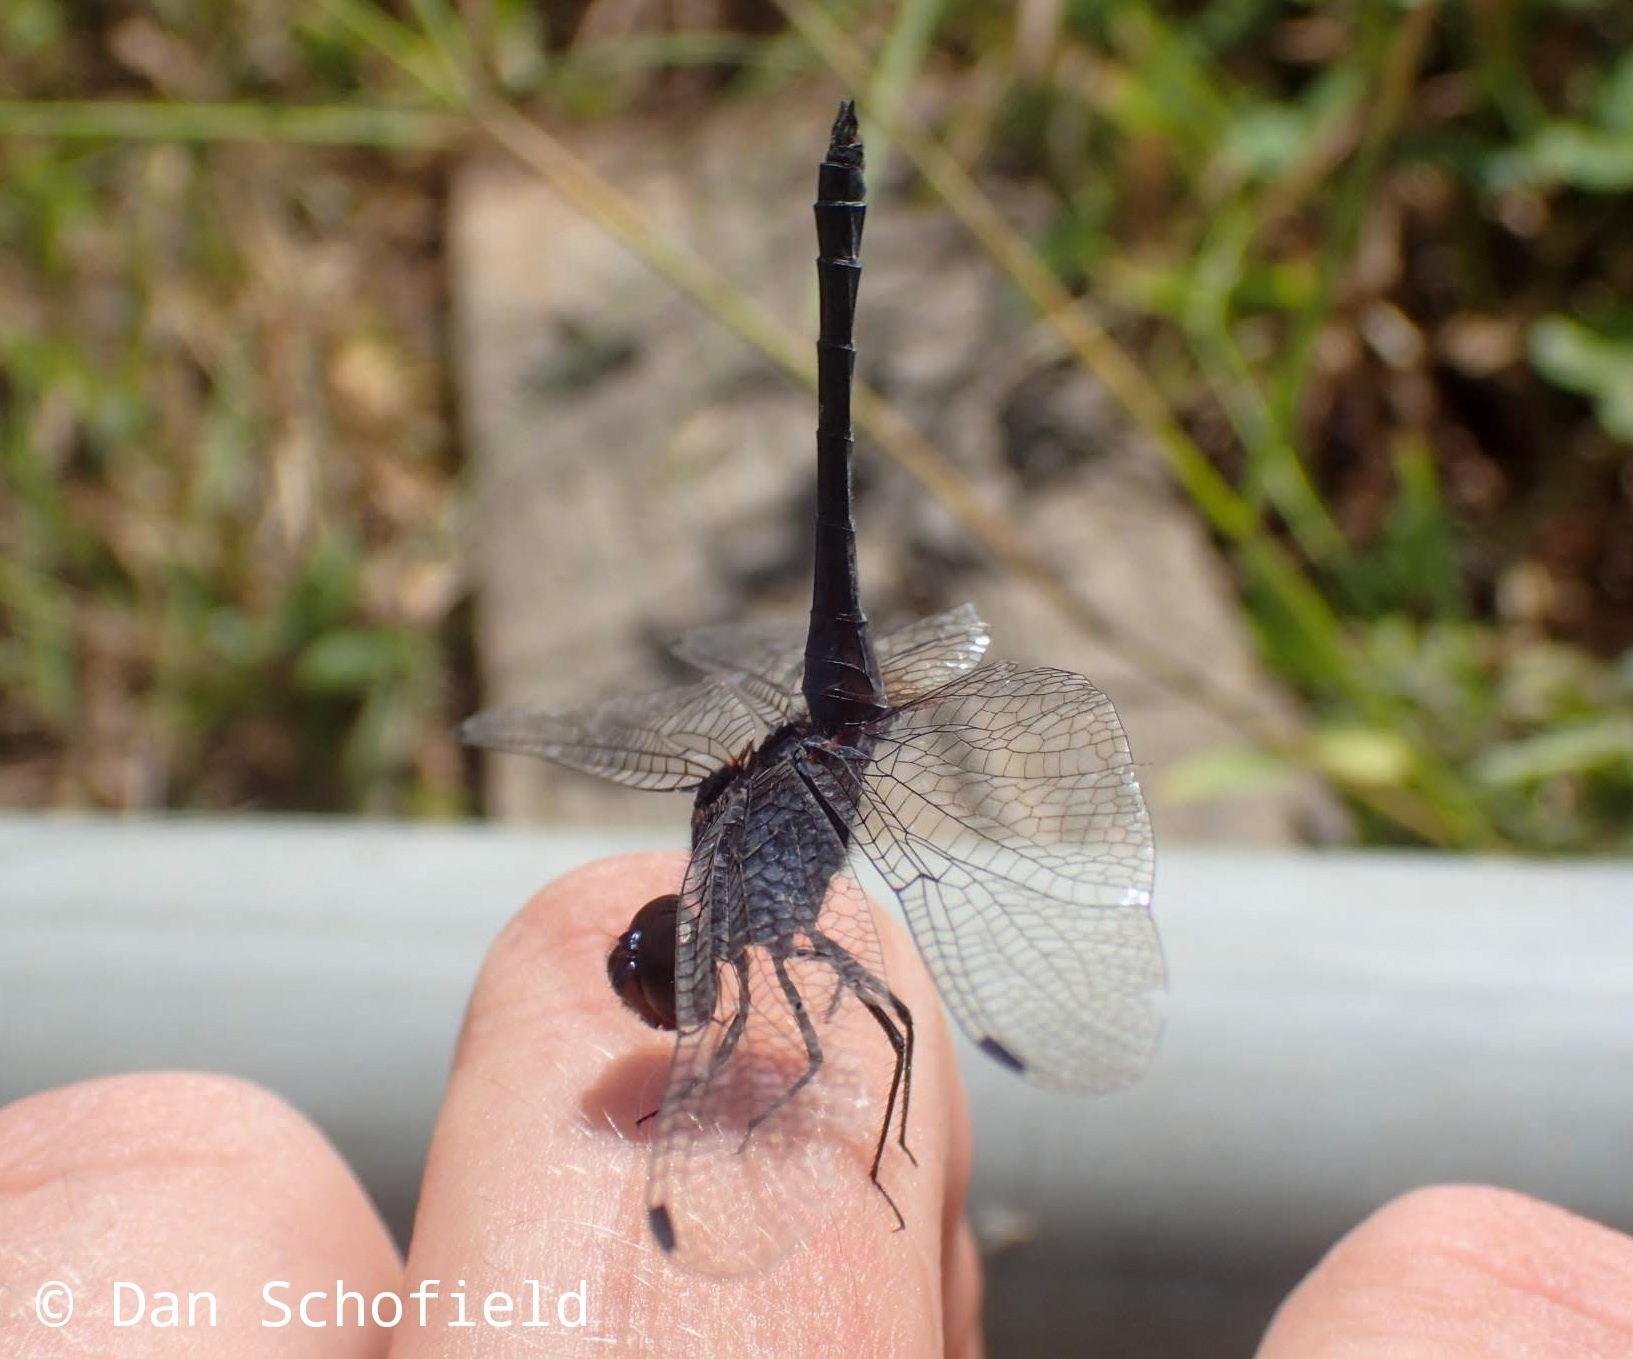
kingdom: Animalia
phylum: Arthropoda
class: Insecta
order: Odonata
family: Libellulidae
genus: Trithemis
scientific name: Trithemis festiva
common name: Indigo dropwing
